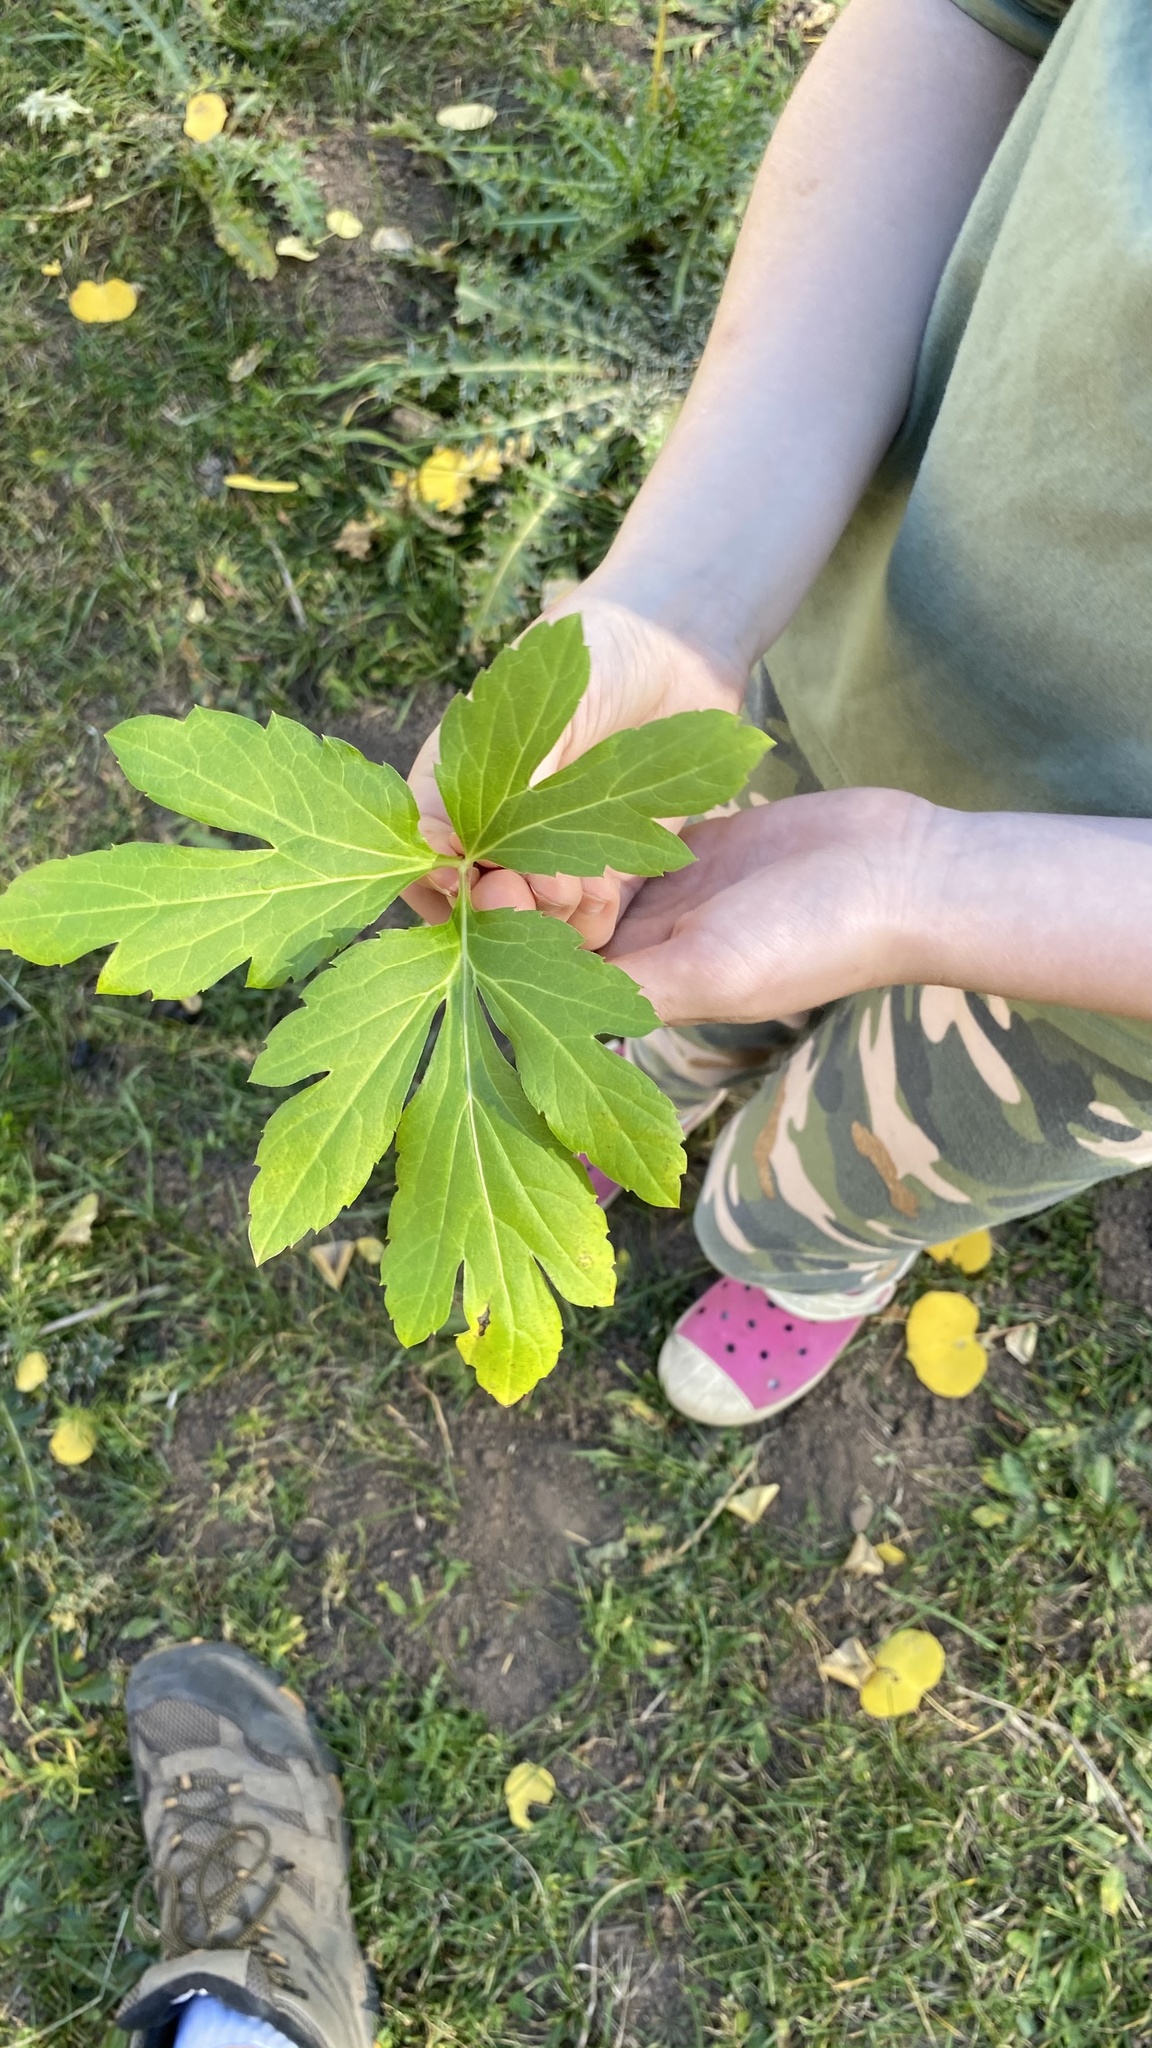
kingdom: Plantae
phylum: Tracheophyta
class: Magnoliopsida
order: Asterales
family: Asteraceae
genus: Rudbeckia
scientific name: Rudbeckia laciniata
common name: Coneflower
